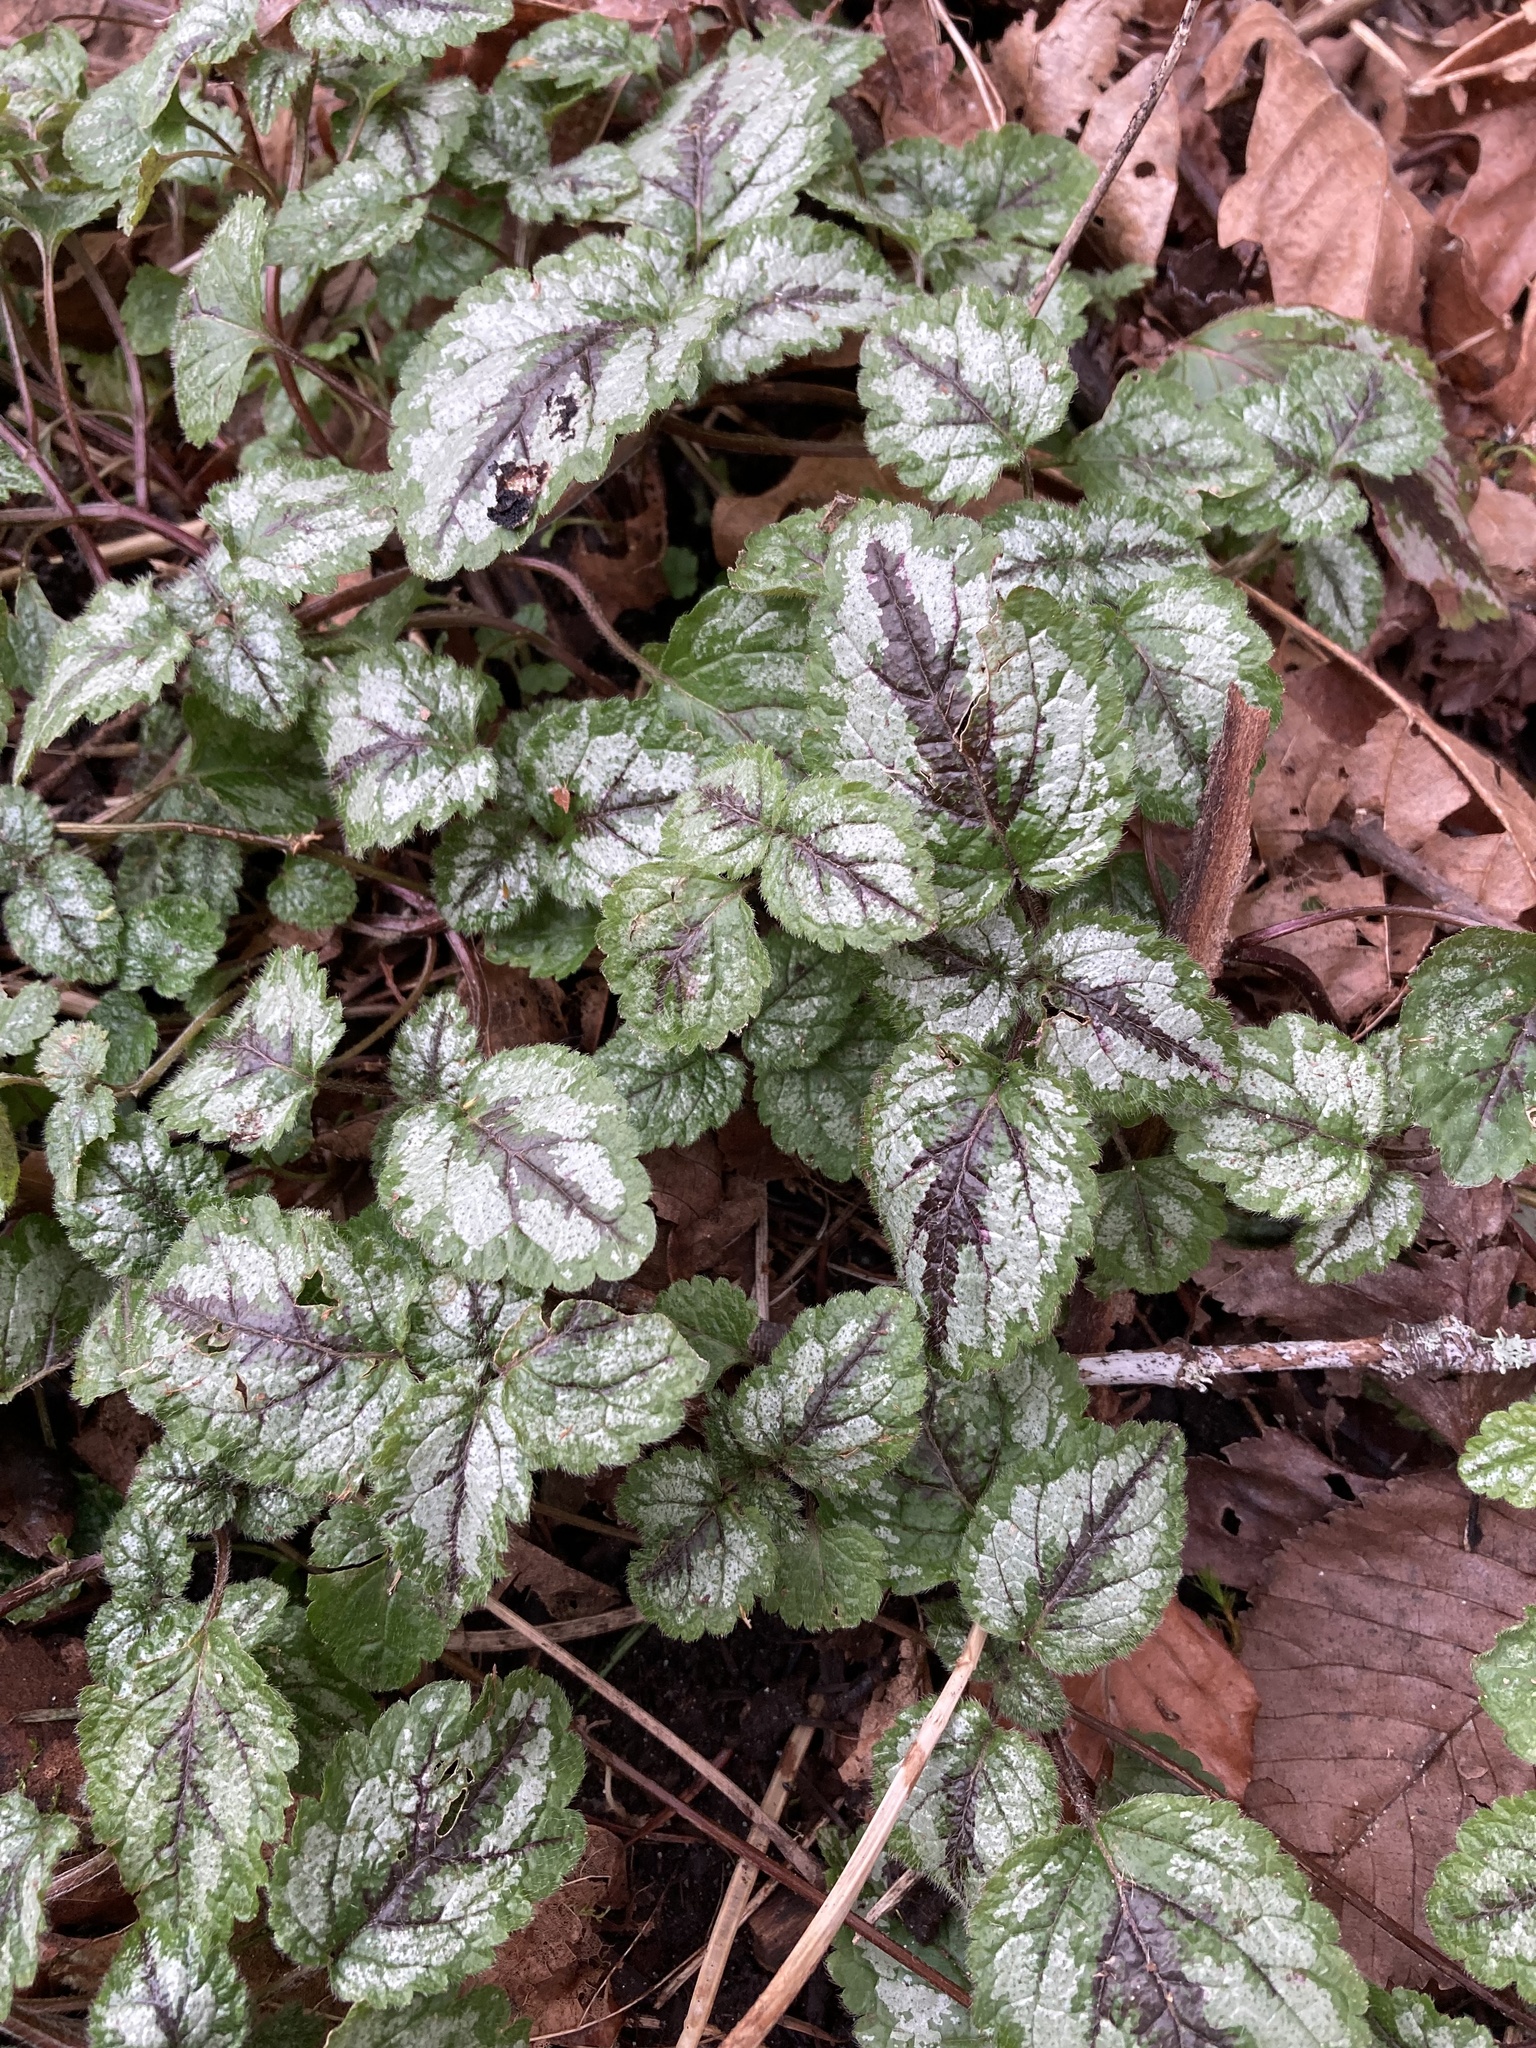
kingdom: Plantae
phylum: Tracheophyta
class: Magnoliopsida
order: Lamiales
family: Lamiaceae
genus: Lamium
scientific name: Lamium galeobdolon
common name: Yellow archangel
